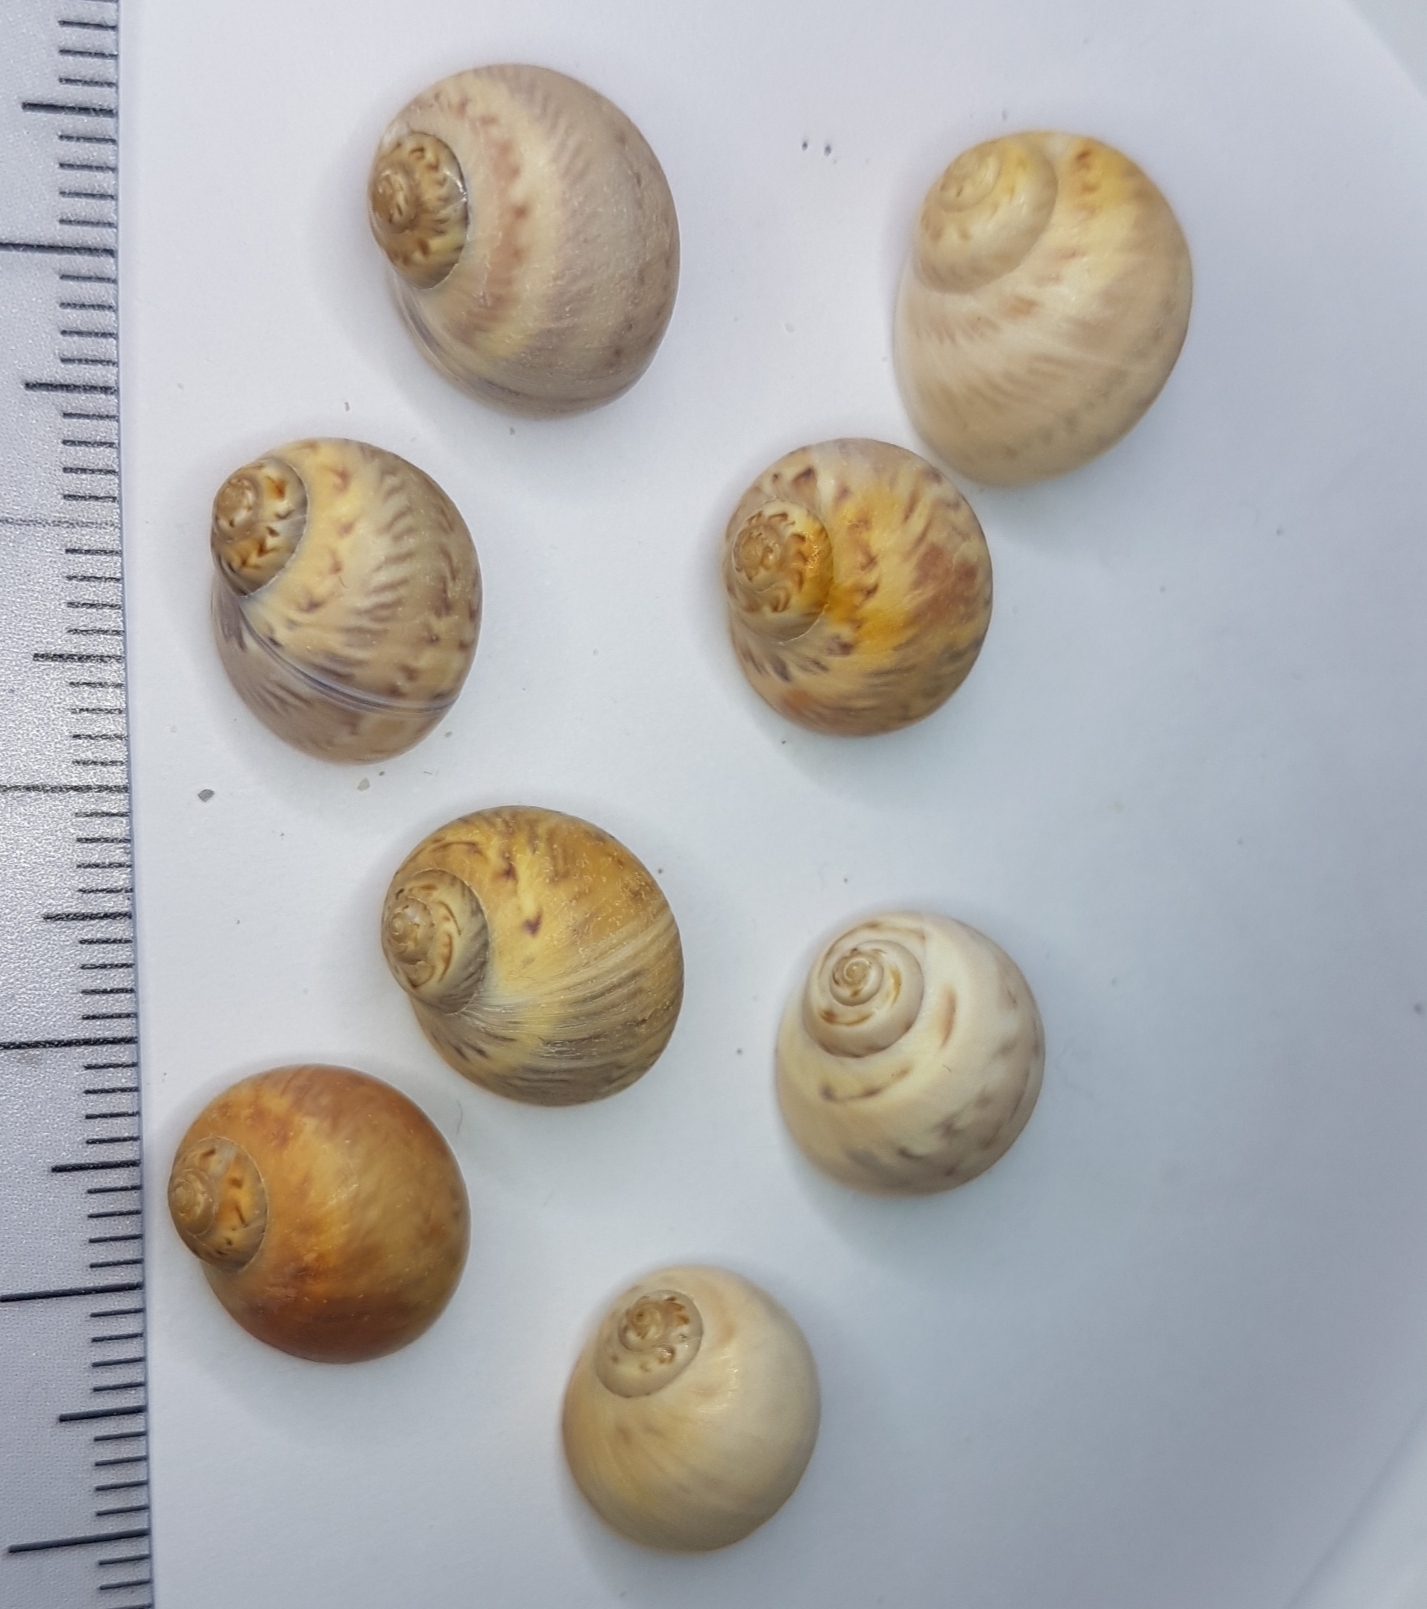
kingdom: Animalia
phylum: Mollusca
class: Gastropoda
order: Littorinimorpha
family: Naticidae
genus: Euspira
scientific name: Euspira nitida
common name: Alder's necklace shell
